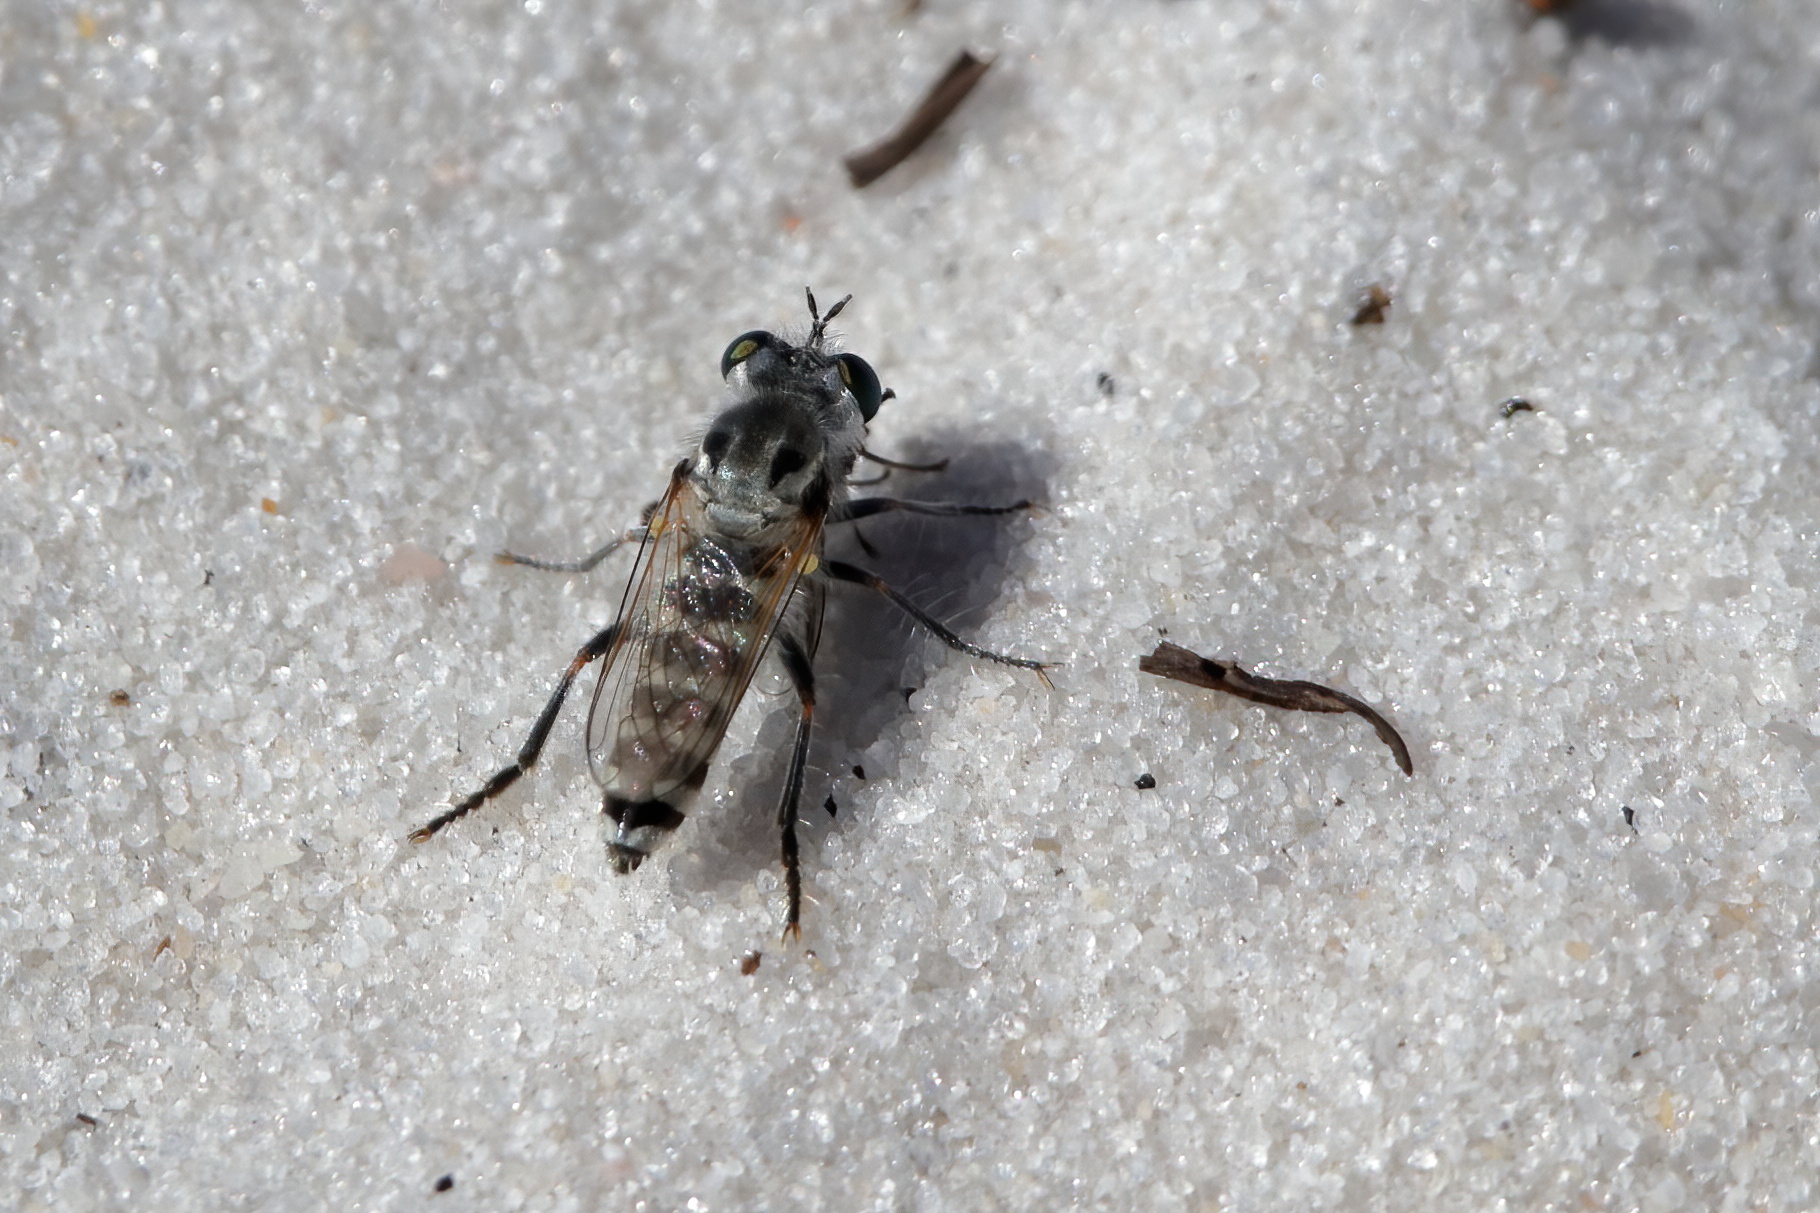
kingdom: Animalia
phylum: Arthropoda
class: Insecta
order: Diptera
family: Asilidae
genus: Laphystia
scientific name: Laphystia texensis
